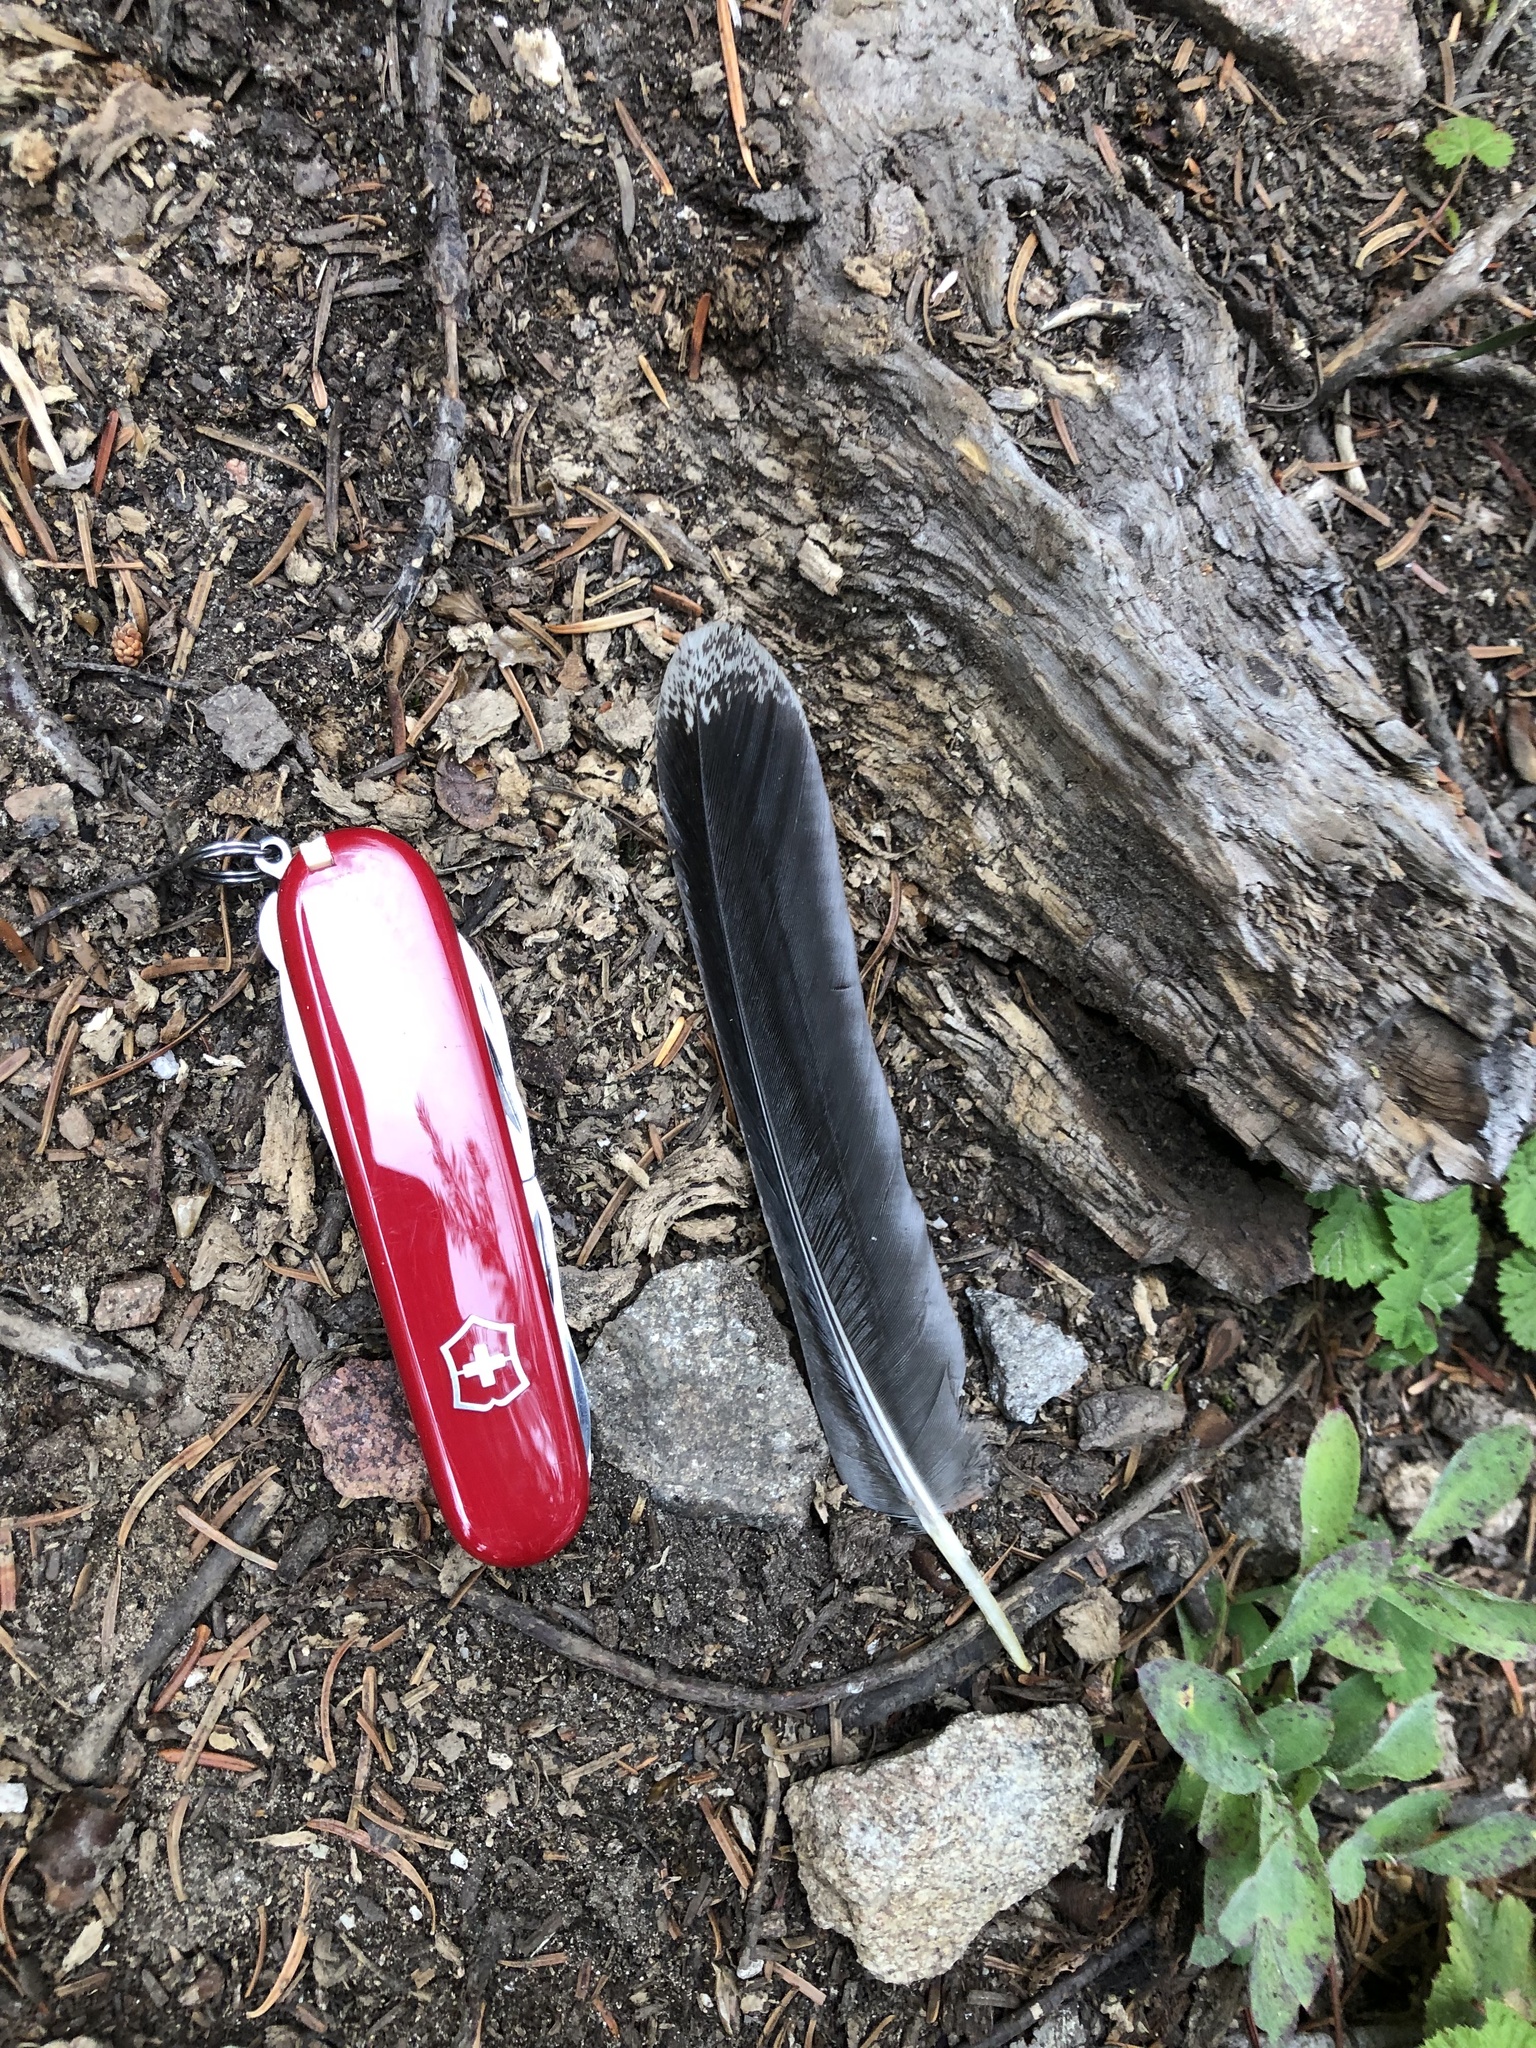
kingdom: Animalia
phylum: Chordata
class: Aves
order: Galliformes
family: Phasianidae
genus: Dendragapus
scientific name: Dendragapus fuliginosus
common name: Sooty grouse
